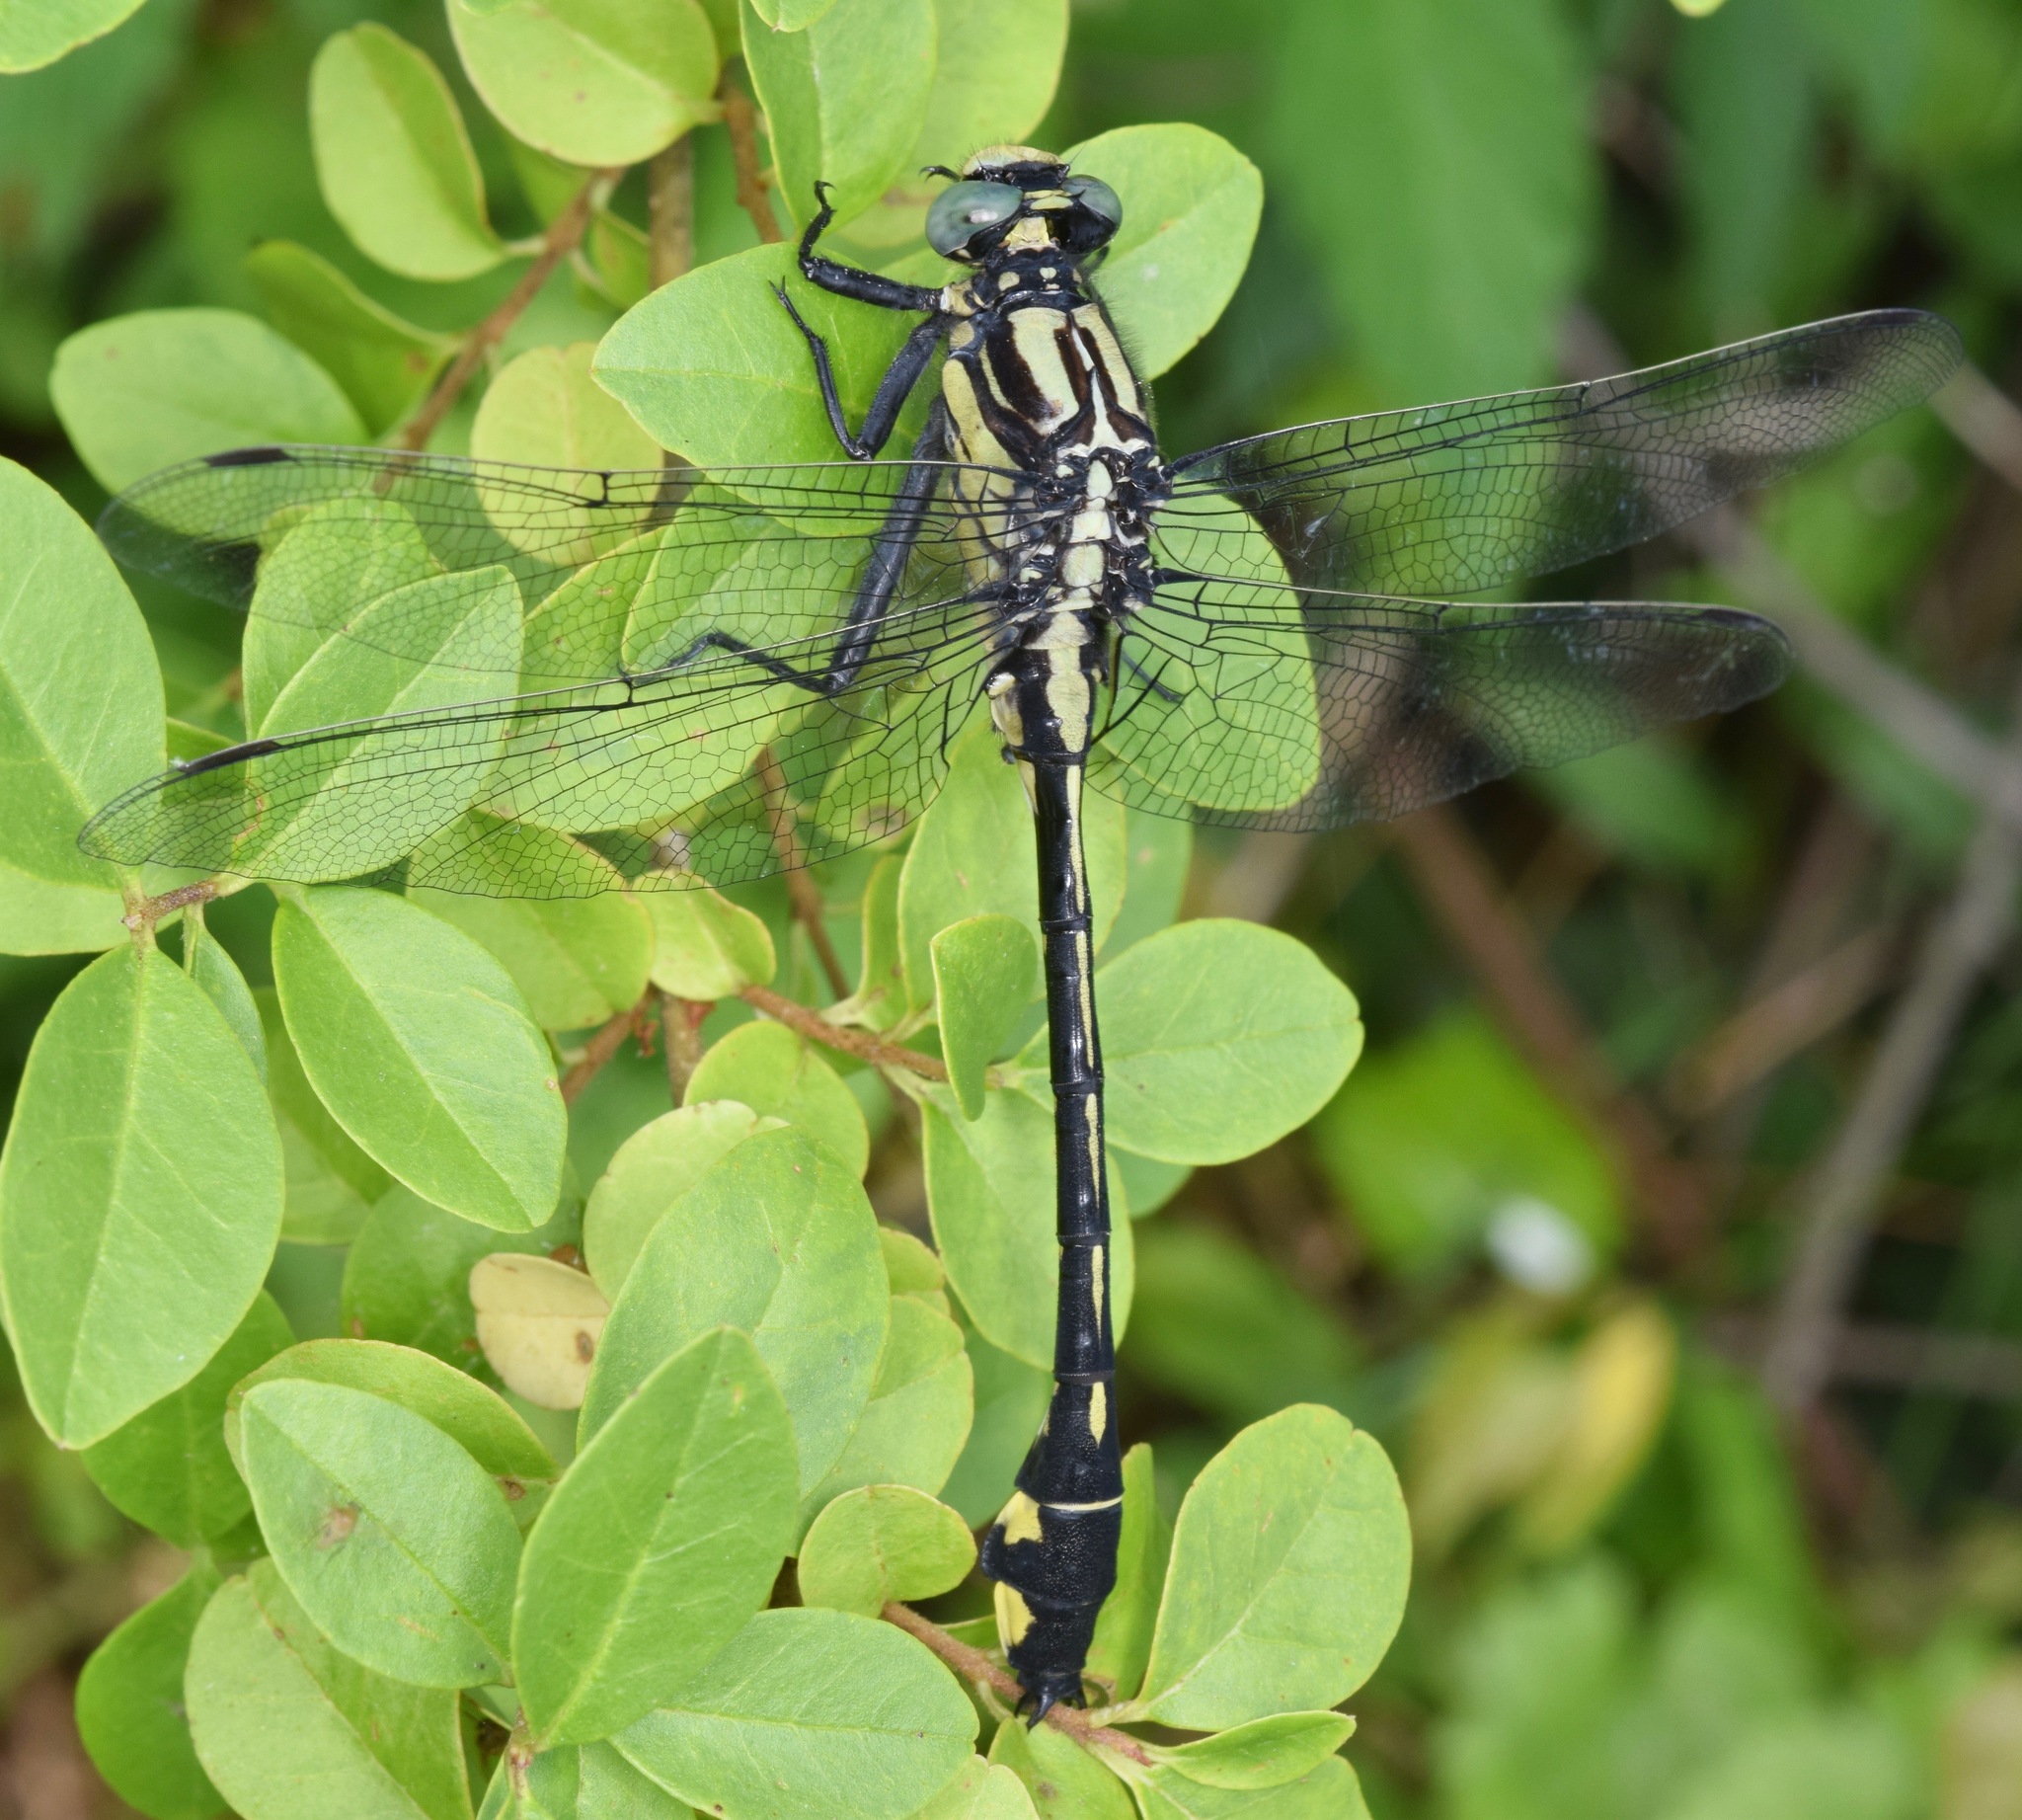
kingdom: Animalia
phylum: Arthropoda
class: Insecta
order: Odonata
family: Gomphidae
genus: Gomphurus
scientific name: Gomphurus lineatifrons
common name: Splendid clubtail
